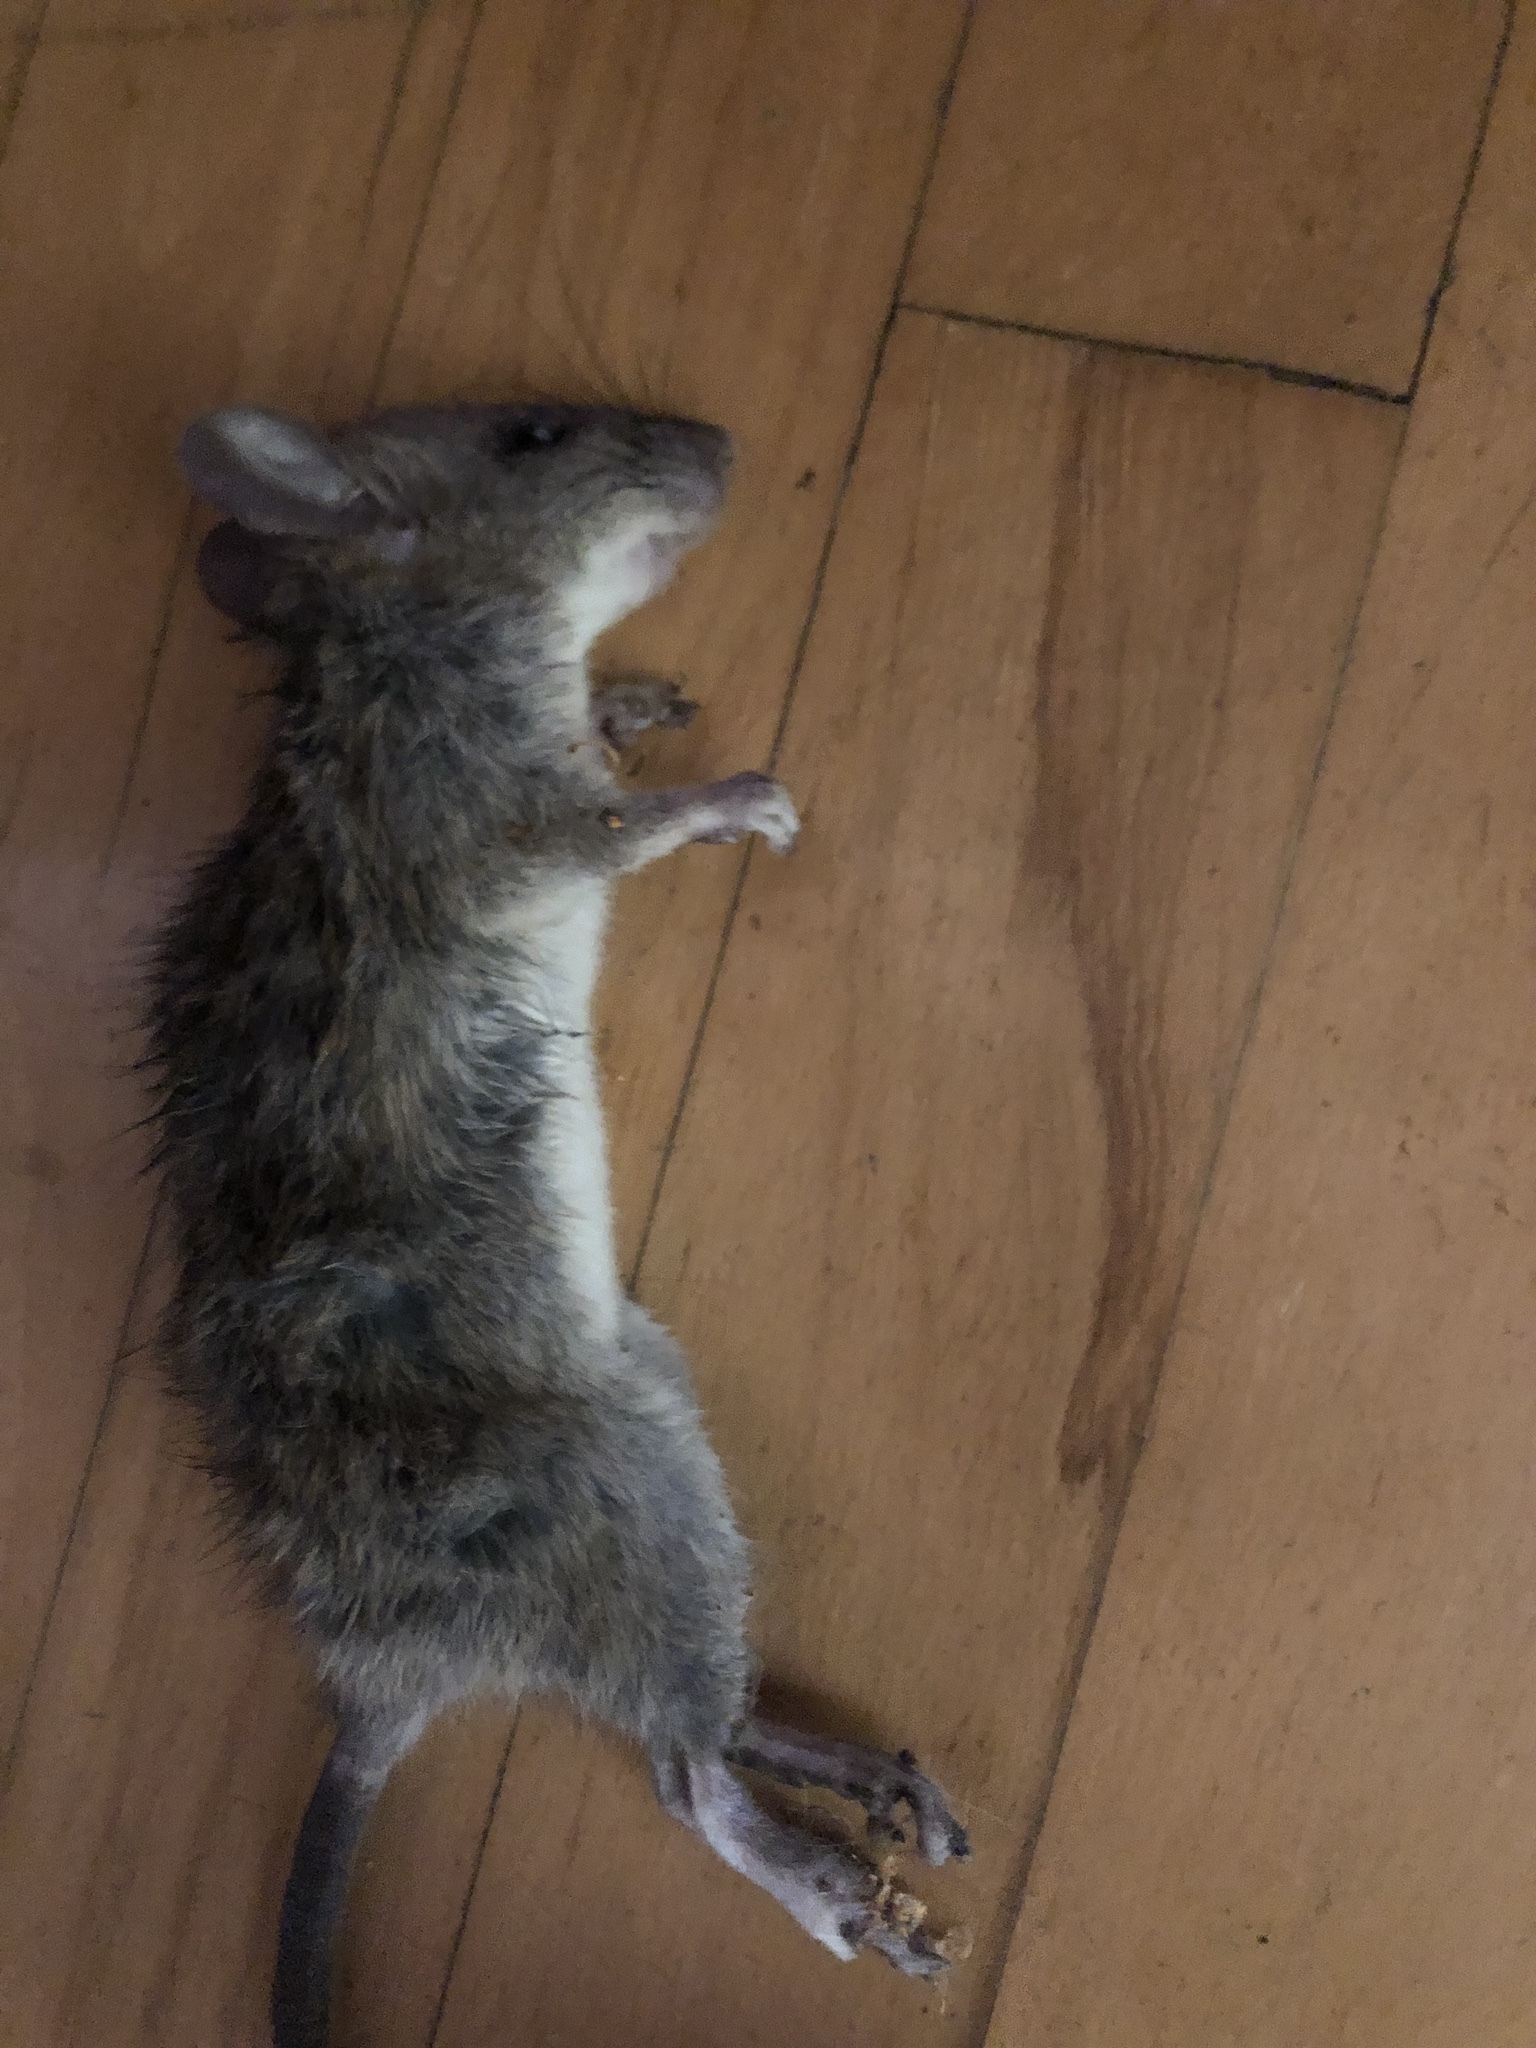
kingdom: Animalia
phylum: Chordata
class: Mammalia
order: Rodentia
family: Muridae
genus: Rattus
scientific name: Rattus rattus
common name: Black rat
